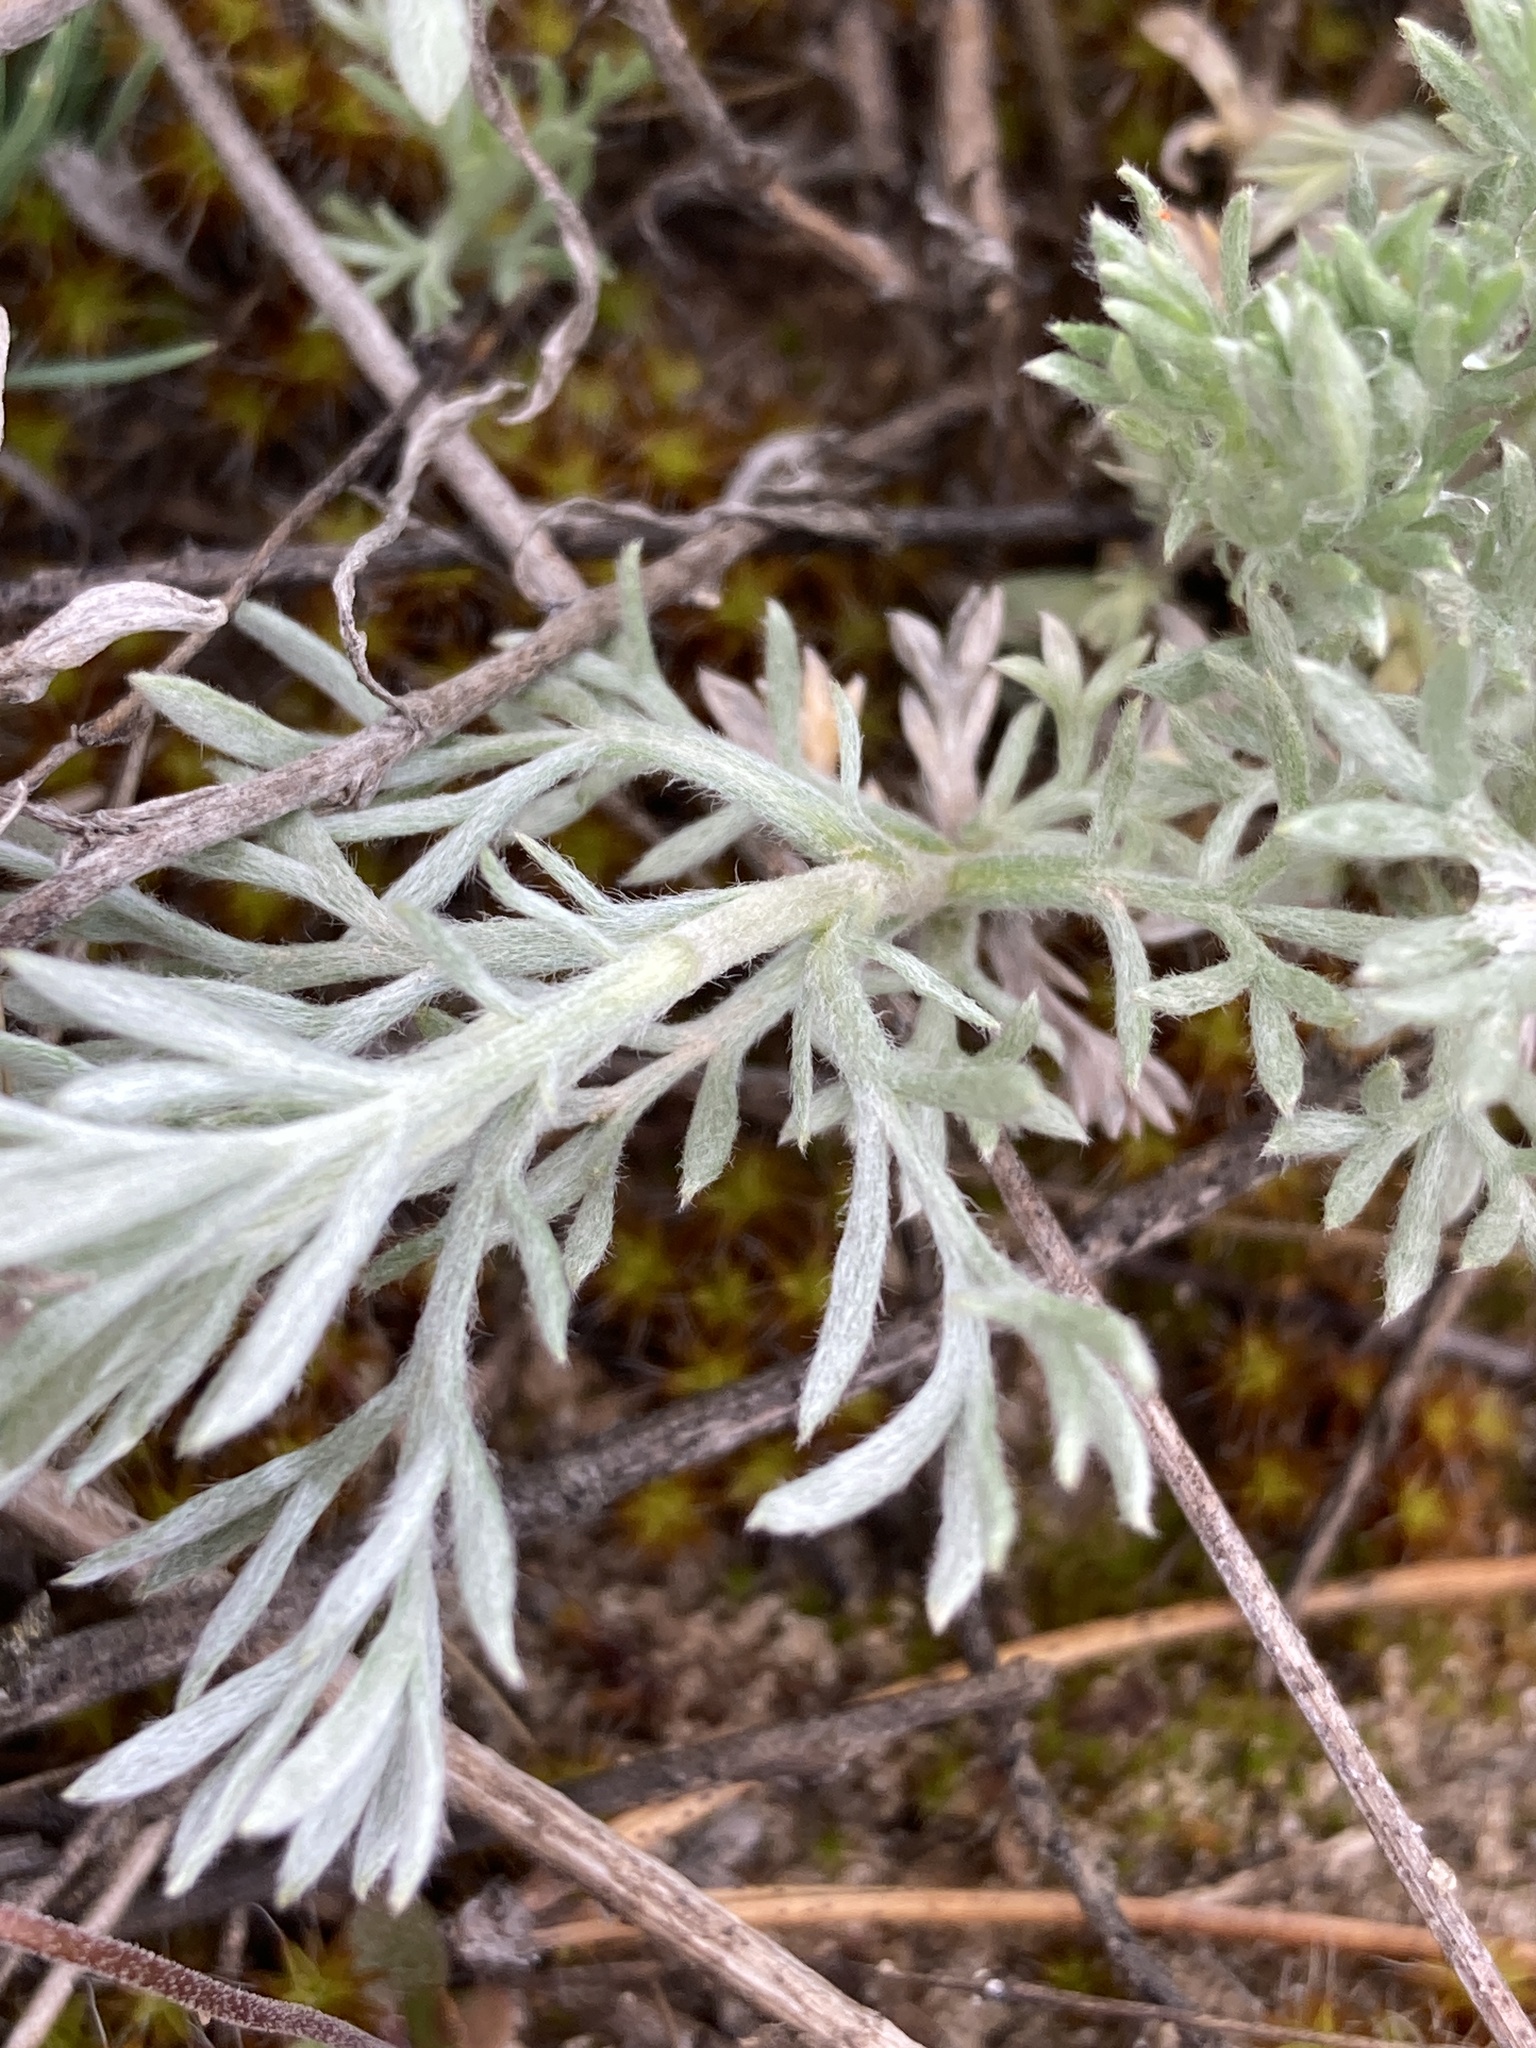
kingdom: Plantae
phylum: Tracheophyta
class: Magnoliopsida
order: Asterales
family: Asteraceae
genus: Artemisia
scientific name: Artemisia austriaca
